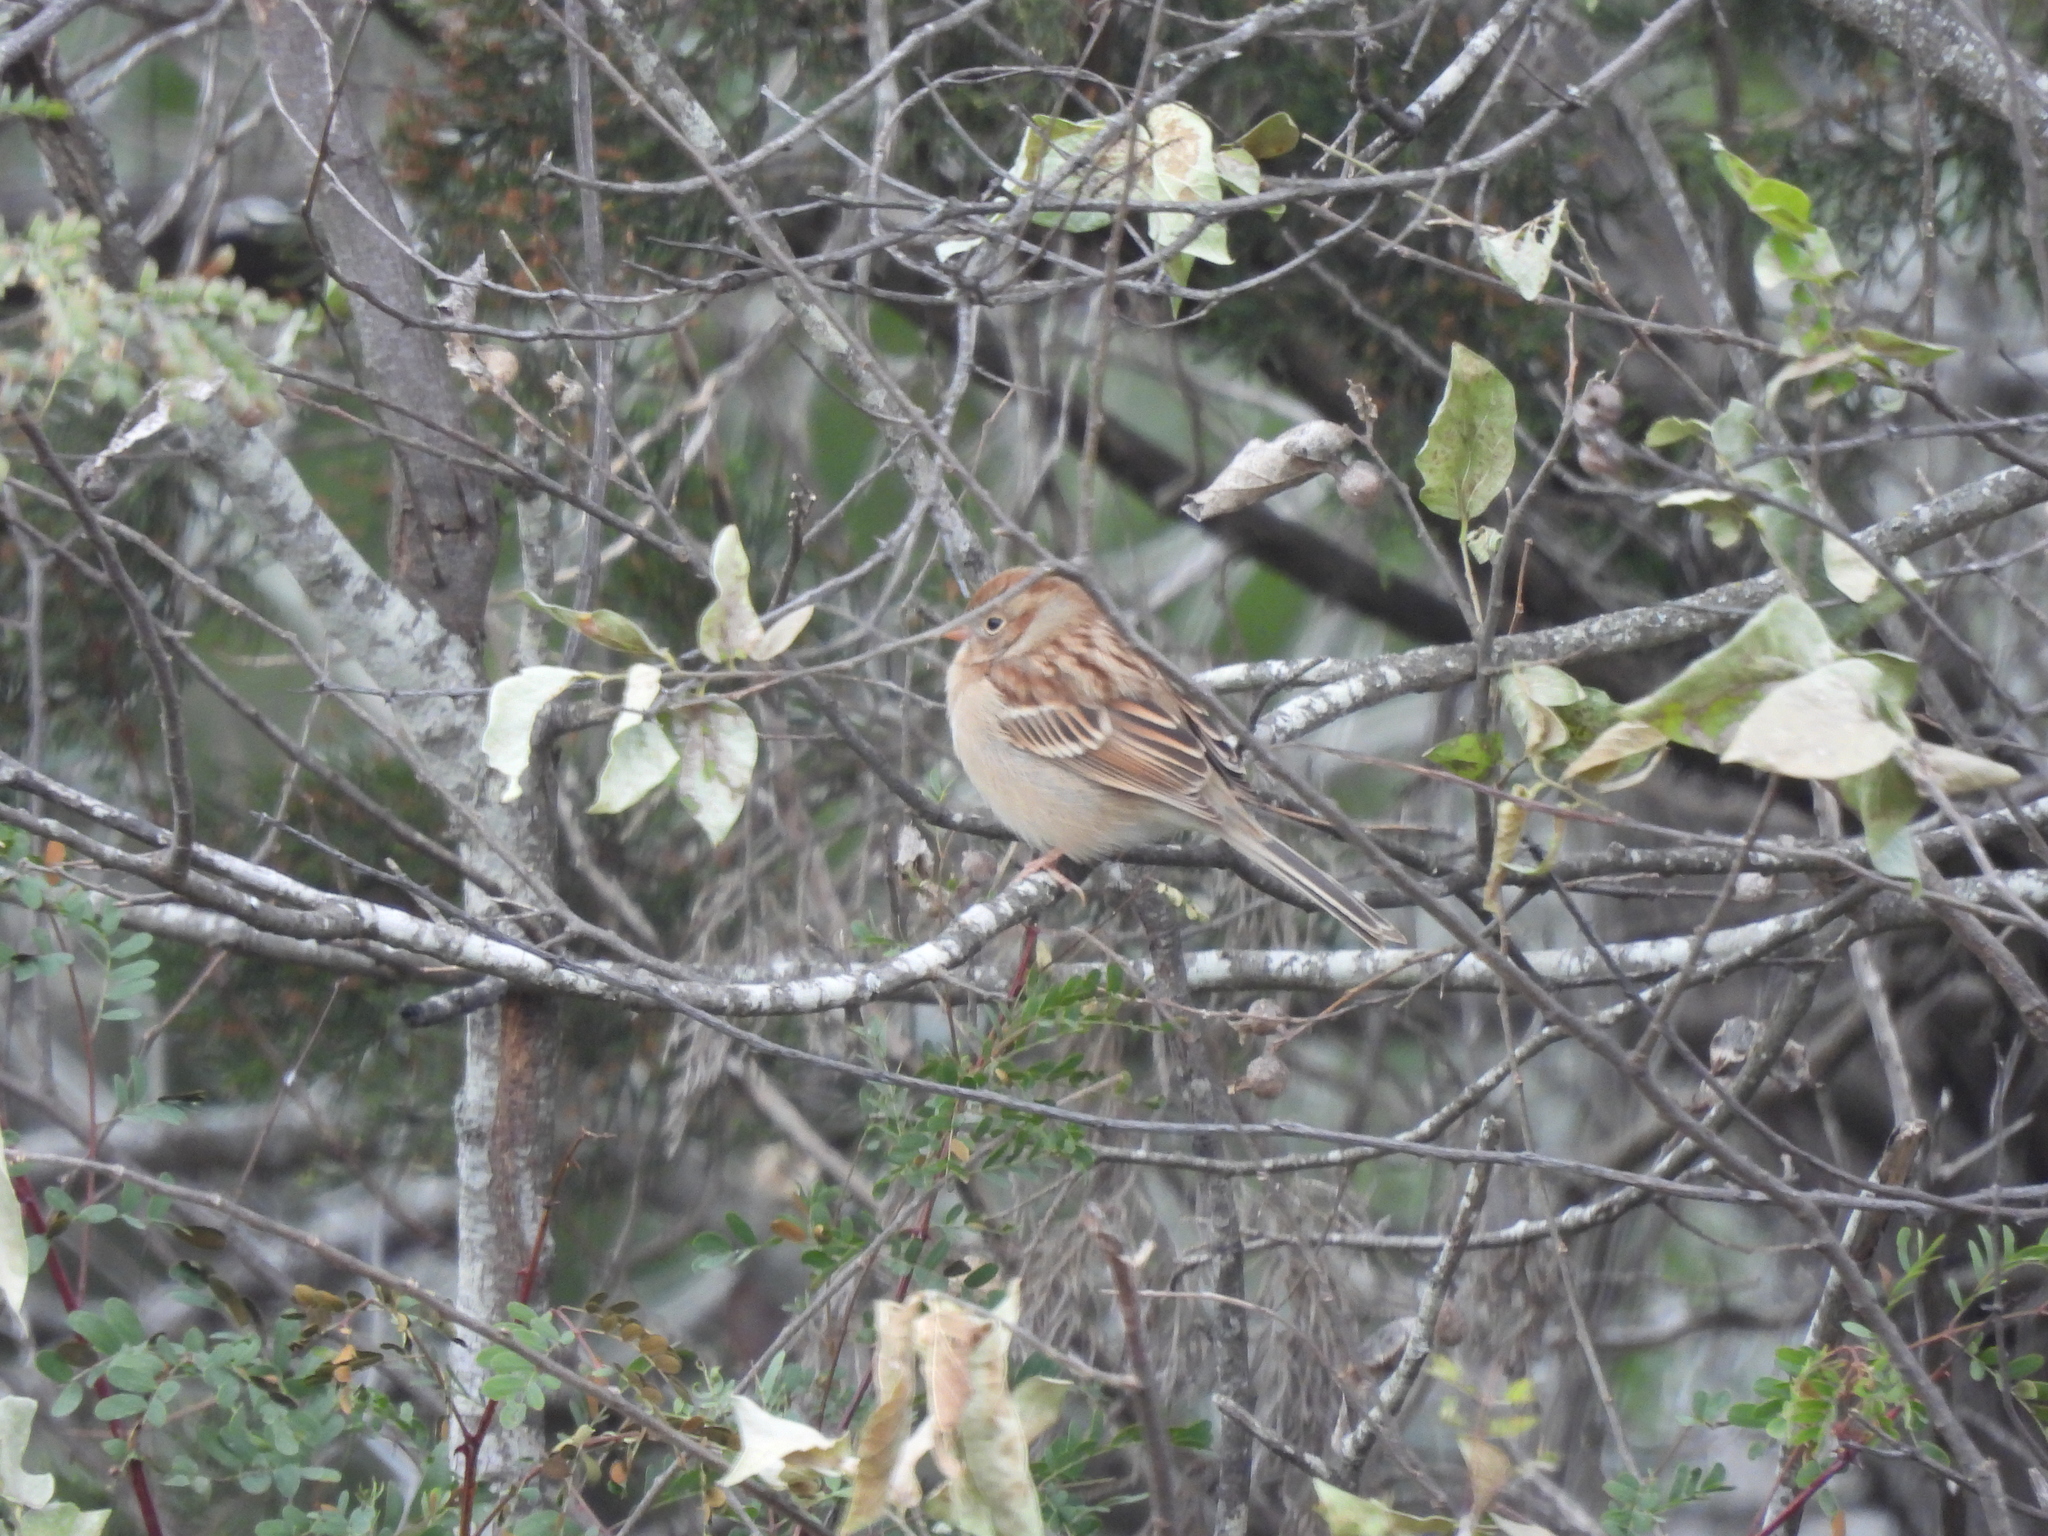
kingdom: Animalia
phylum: Chordata
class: Aves
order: Passeriformes
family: Passerellidae
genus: Spizella
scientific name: Spizella pusilla
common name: Field sparrow
